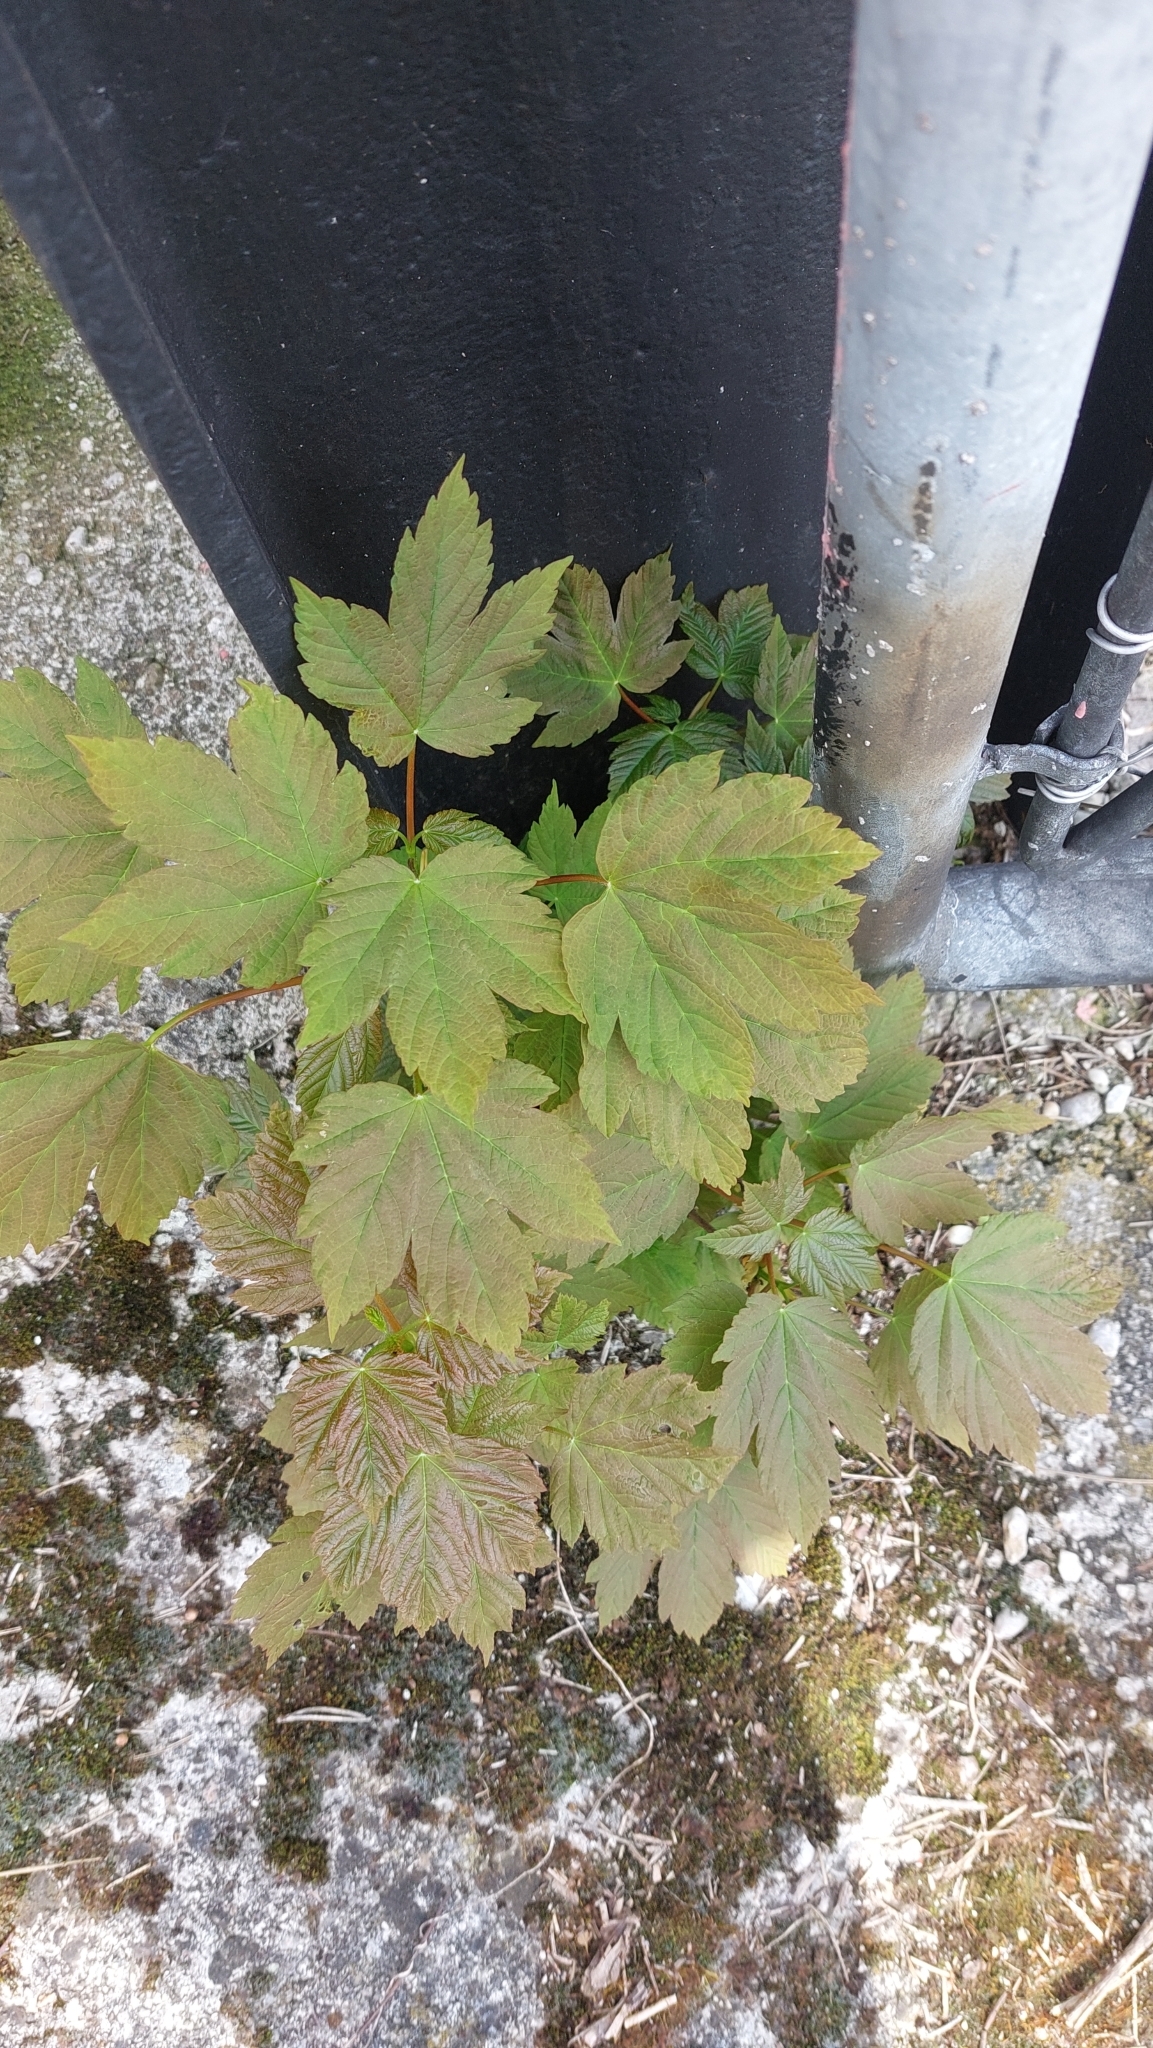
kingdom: Plantae
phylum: Tracheophyta
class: Magnoliopsida
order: Sapindales
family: Sapindaceae
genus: Acer
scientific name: Acer pseudoplatanus
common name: Sycamore
